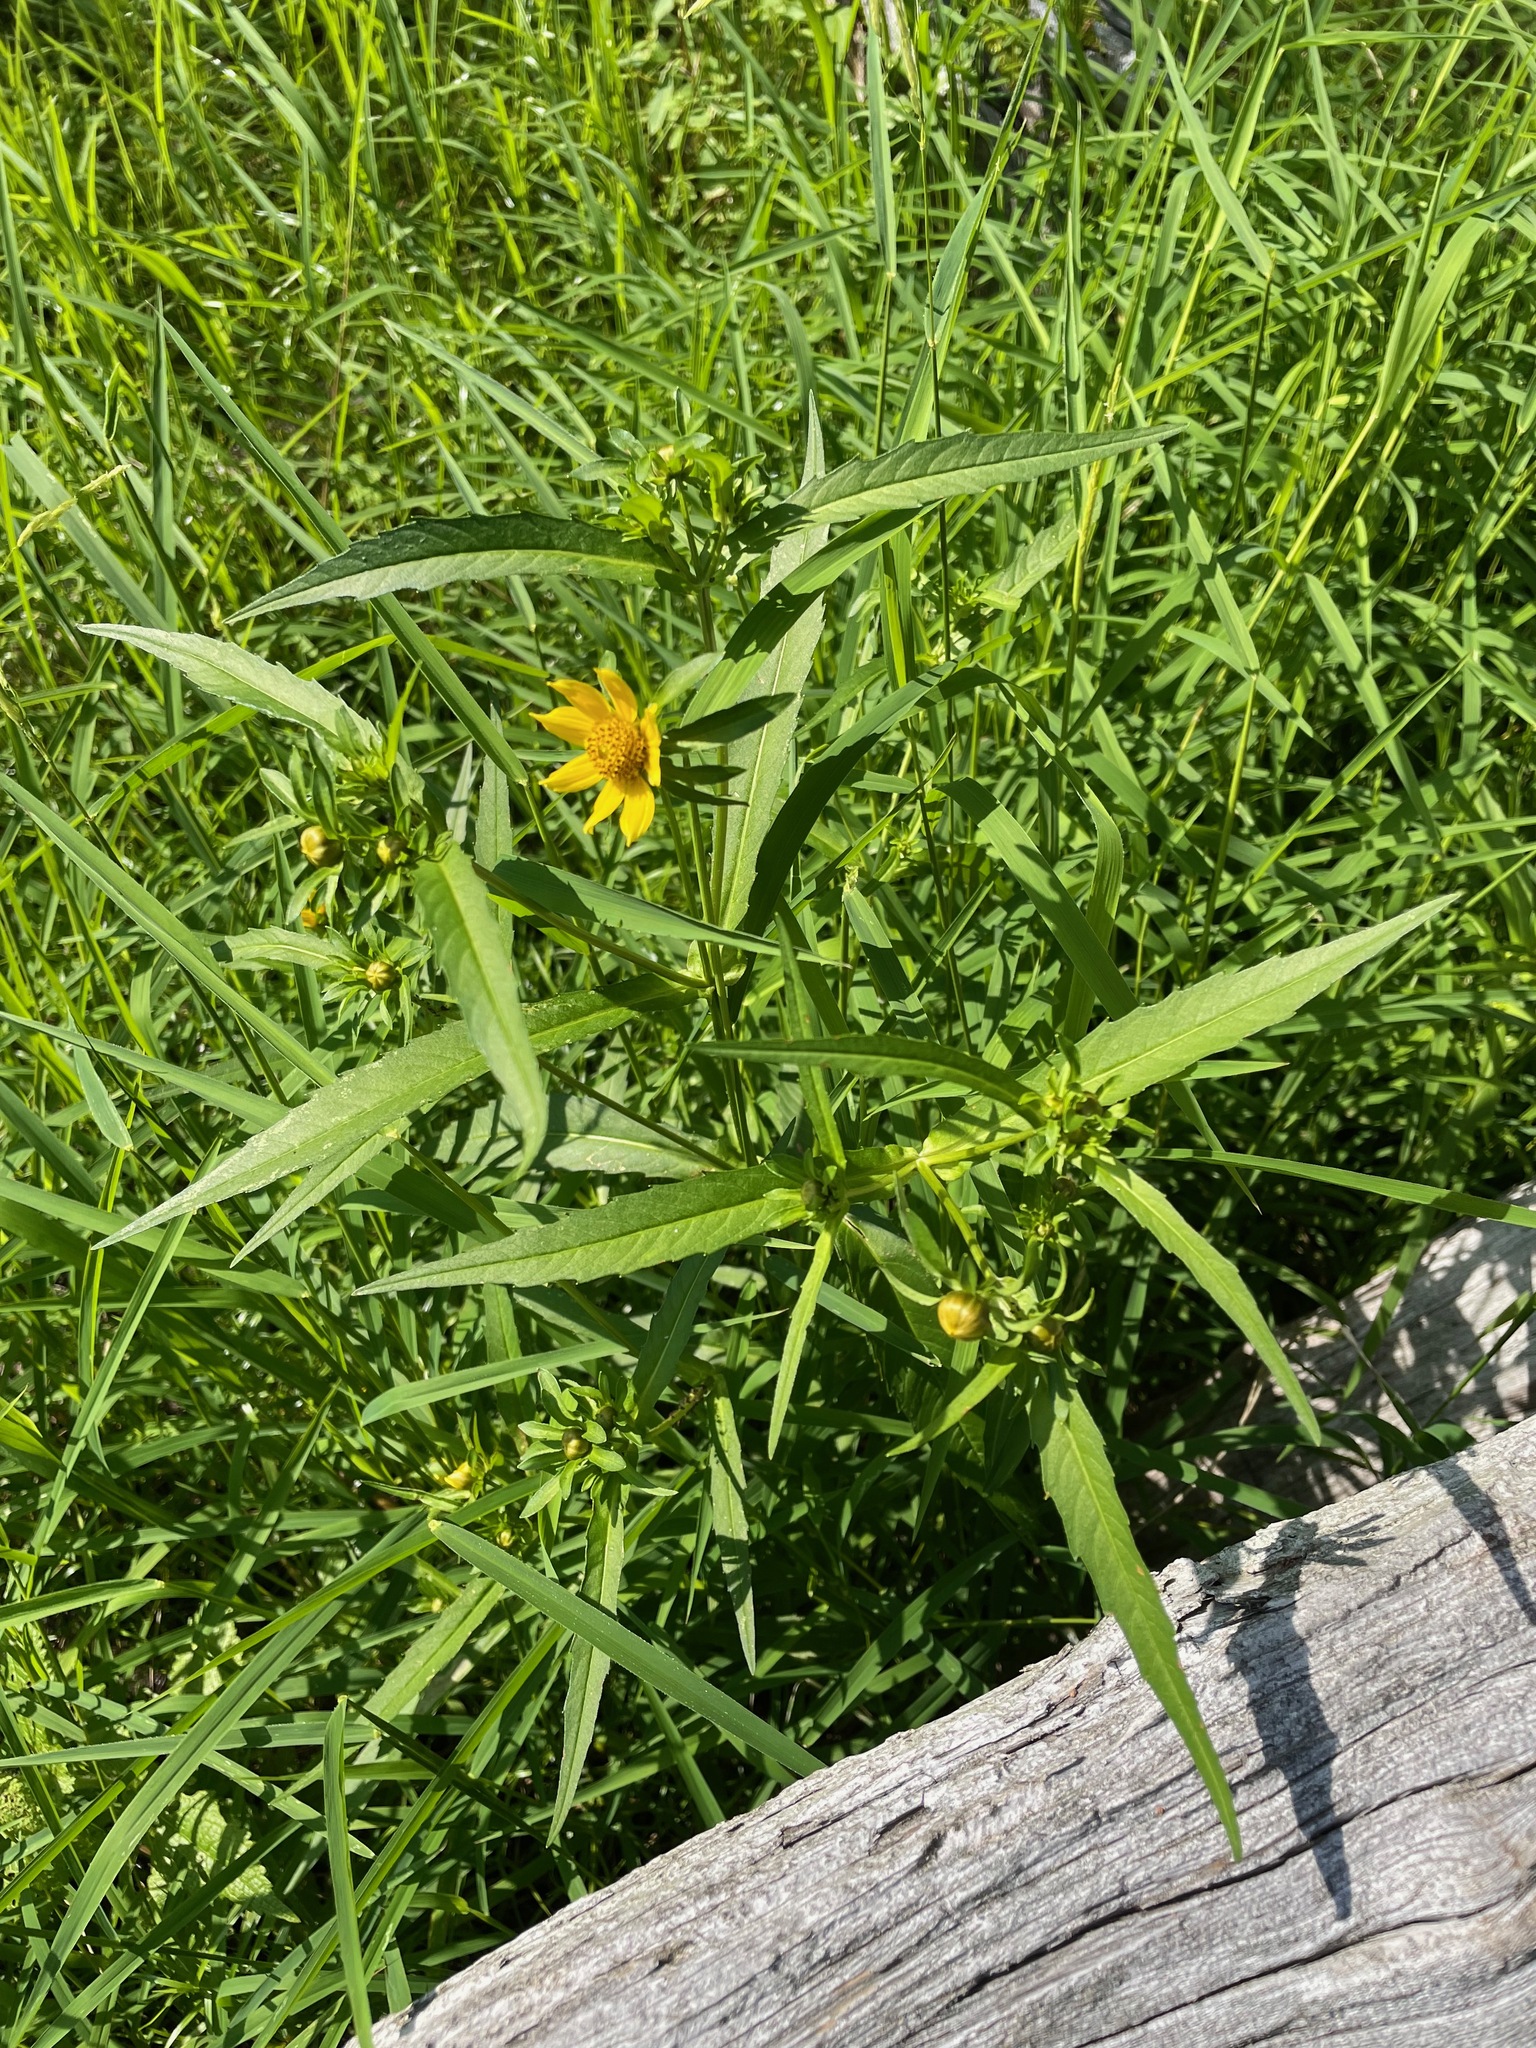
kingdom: Plantae
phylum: Tracheophyta
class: Magnoliopsida
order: Asterales
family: Asteraceae
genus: Bidens
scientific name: Bidens cernua
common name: Nodding bur-marigold
